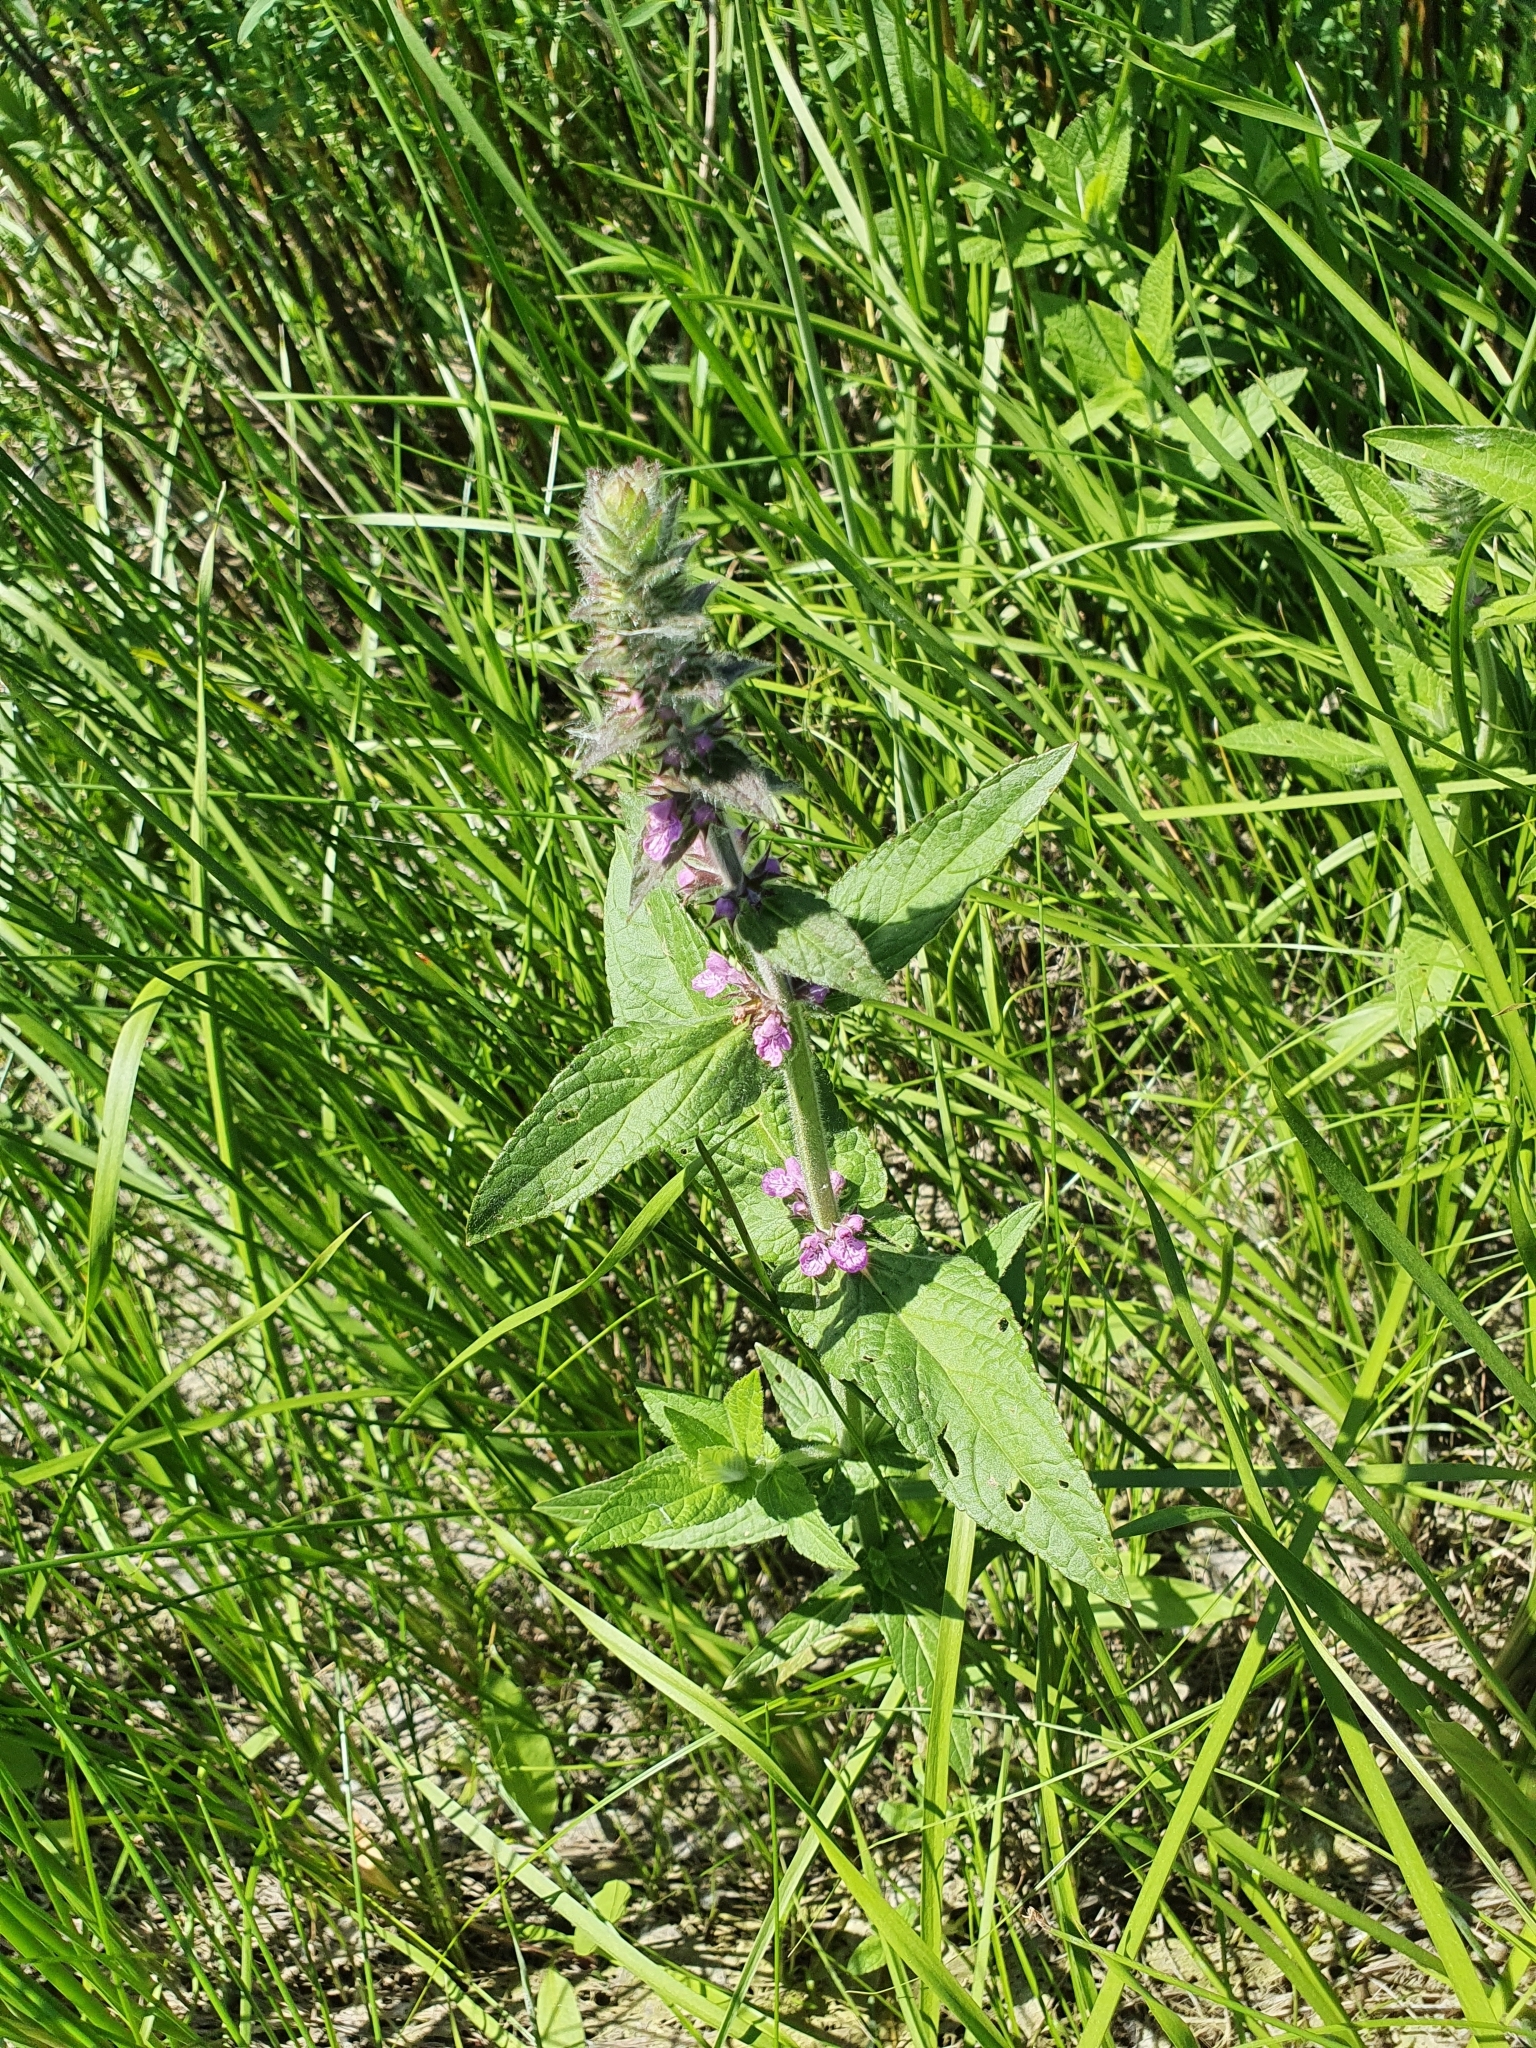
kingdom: Plantae
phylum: Tracheophyta
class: Magnoliopsida
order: Lamiales
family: Lamiaceae
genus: Stachys
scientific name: Stachys palustris
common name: Marsh woundwort
